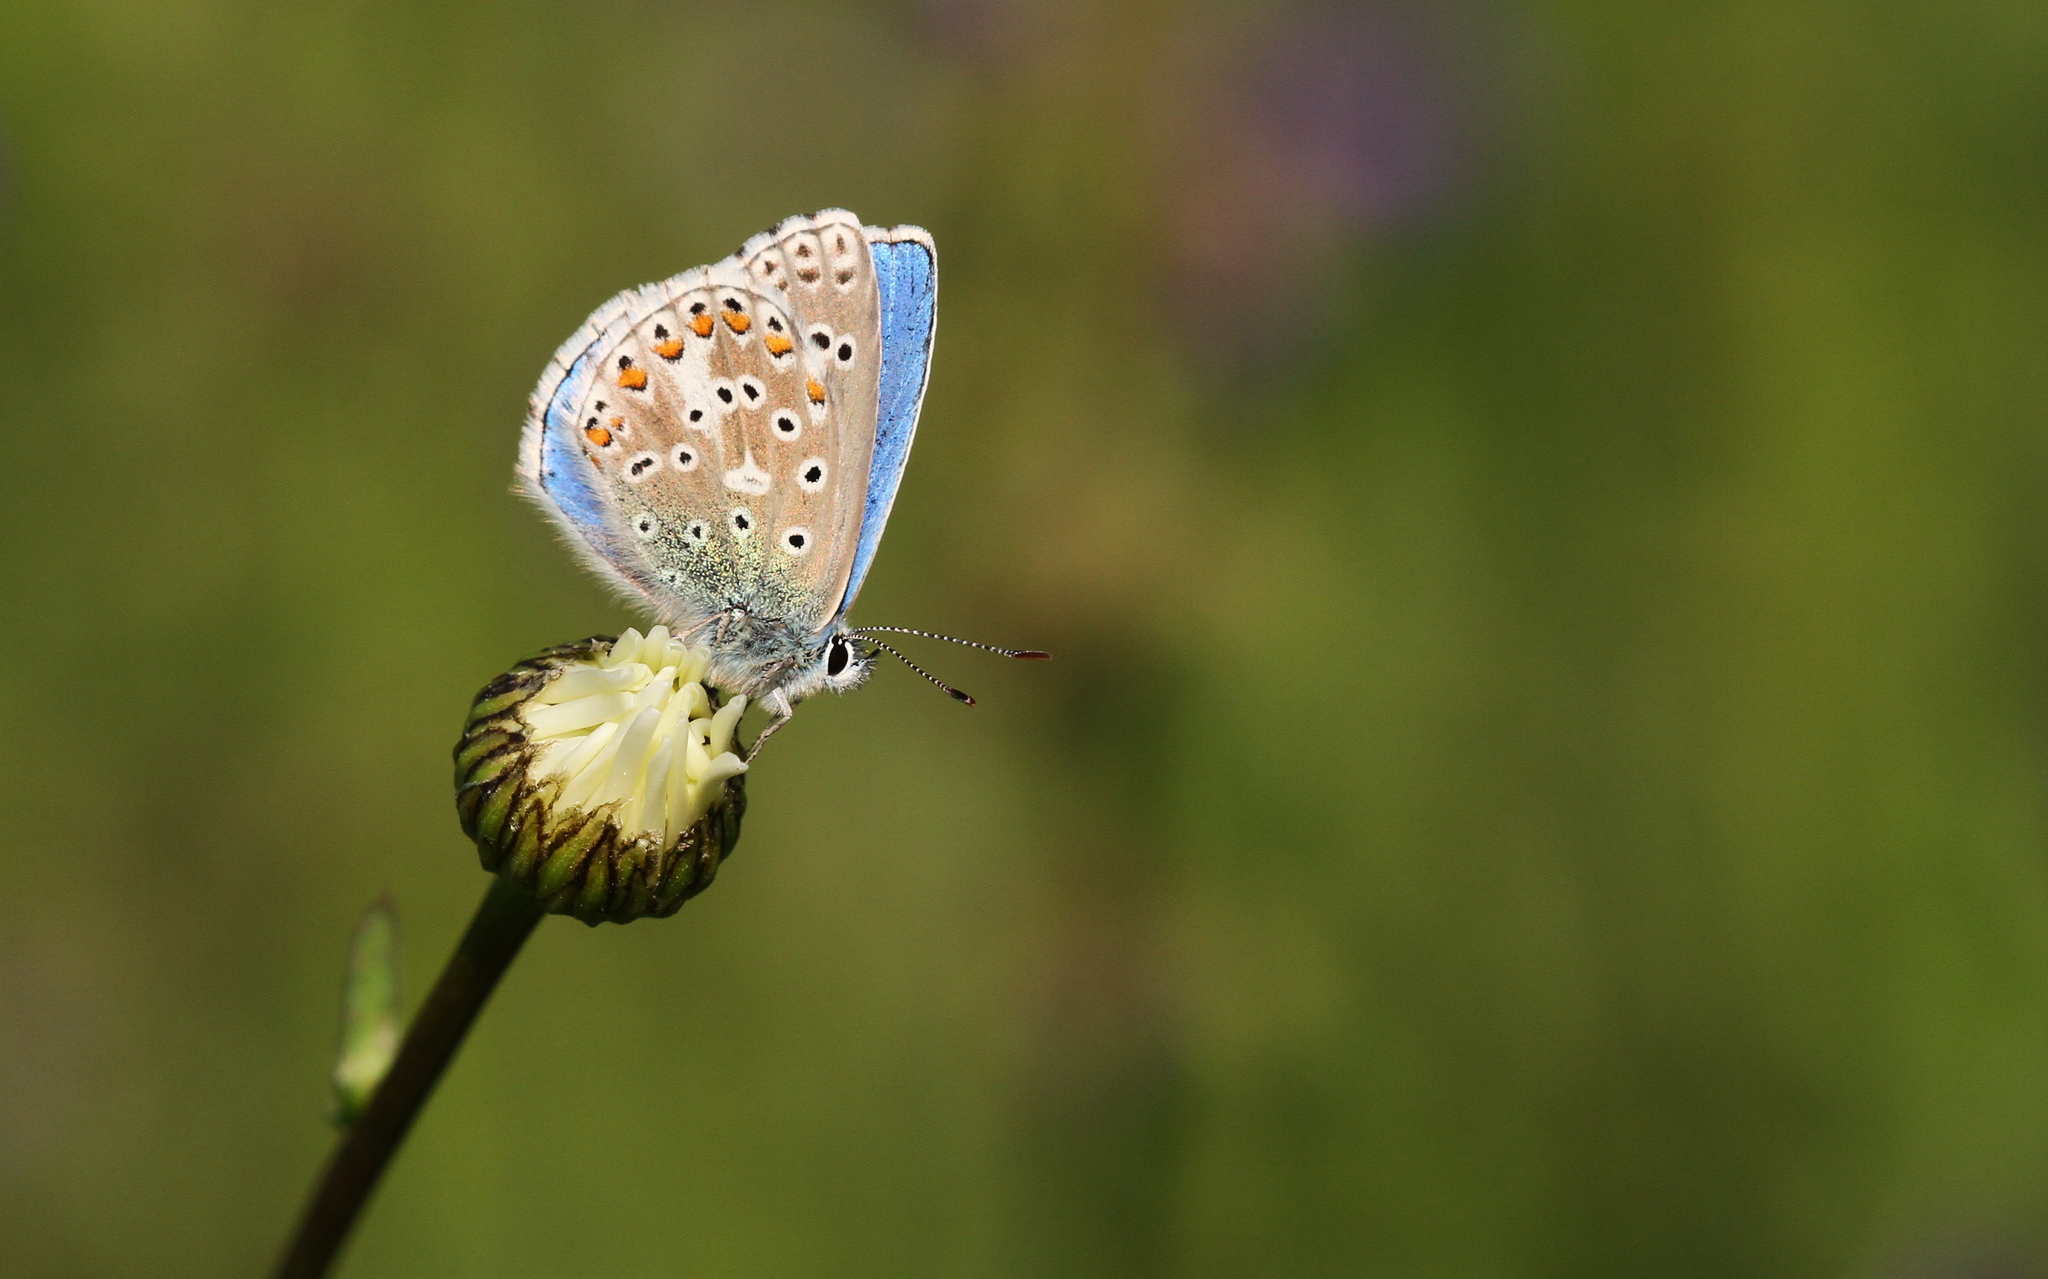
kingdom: Animalia
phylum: Arthropoda
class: Insecta
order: Lepidoptera
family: Lycaenidae
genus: Lysandra
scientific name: Lysandra bellargus
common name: Adonis blue
